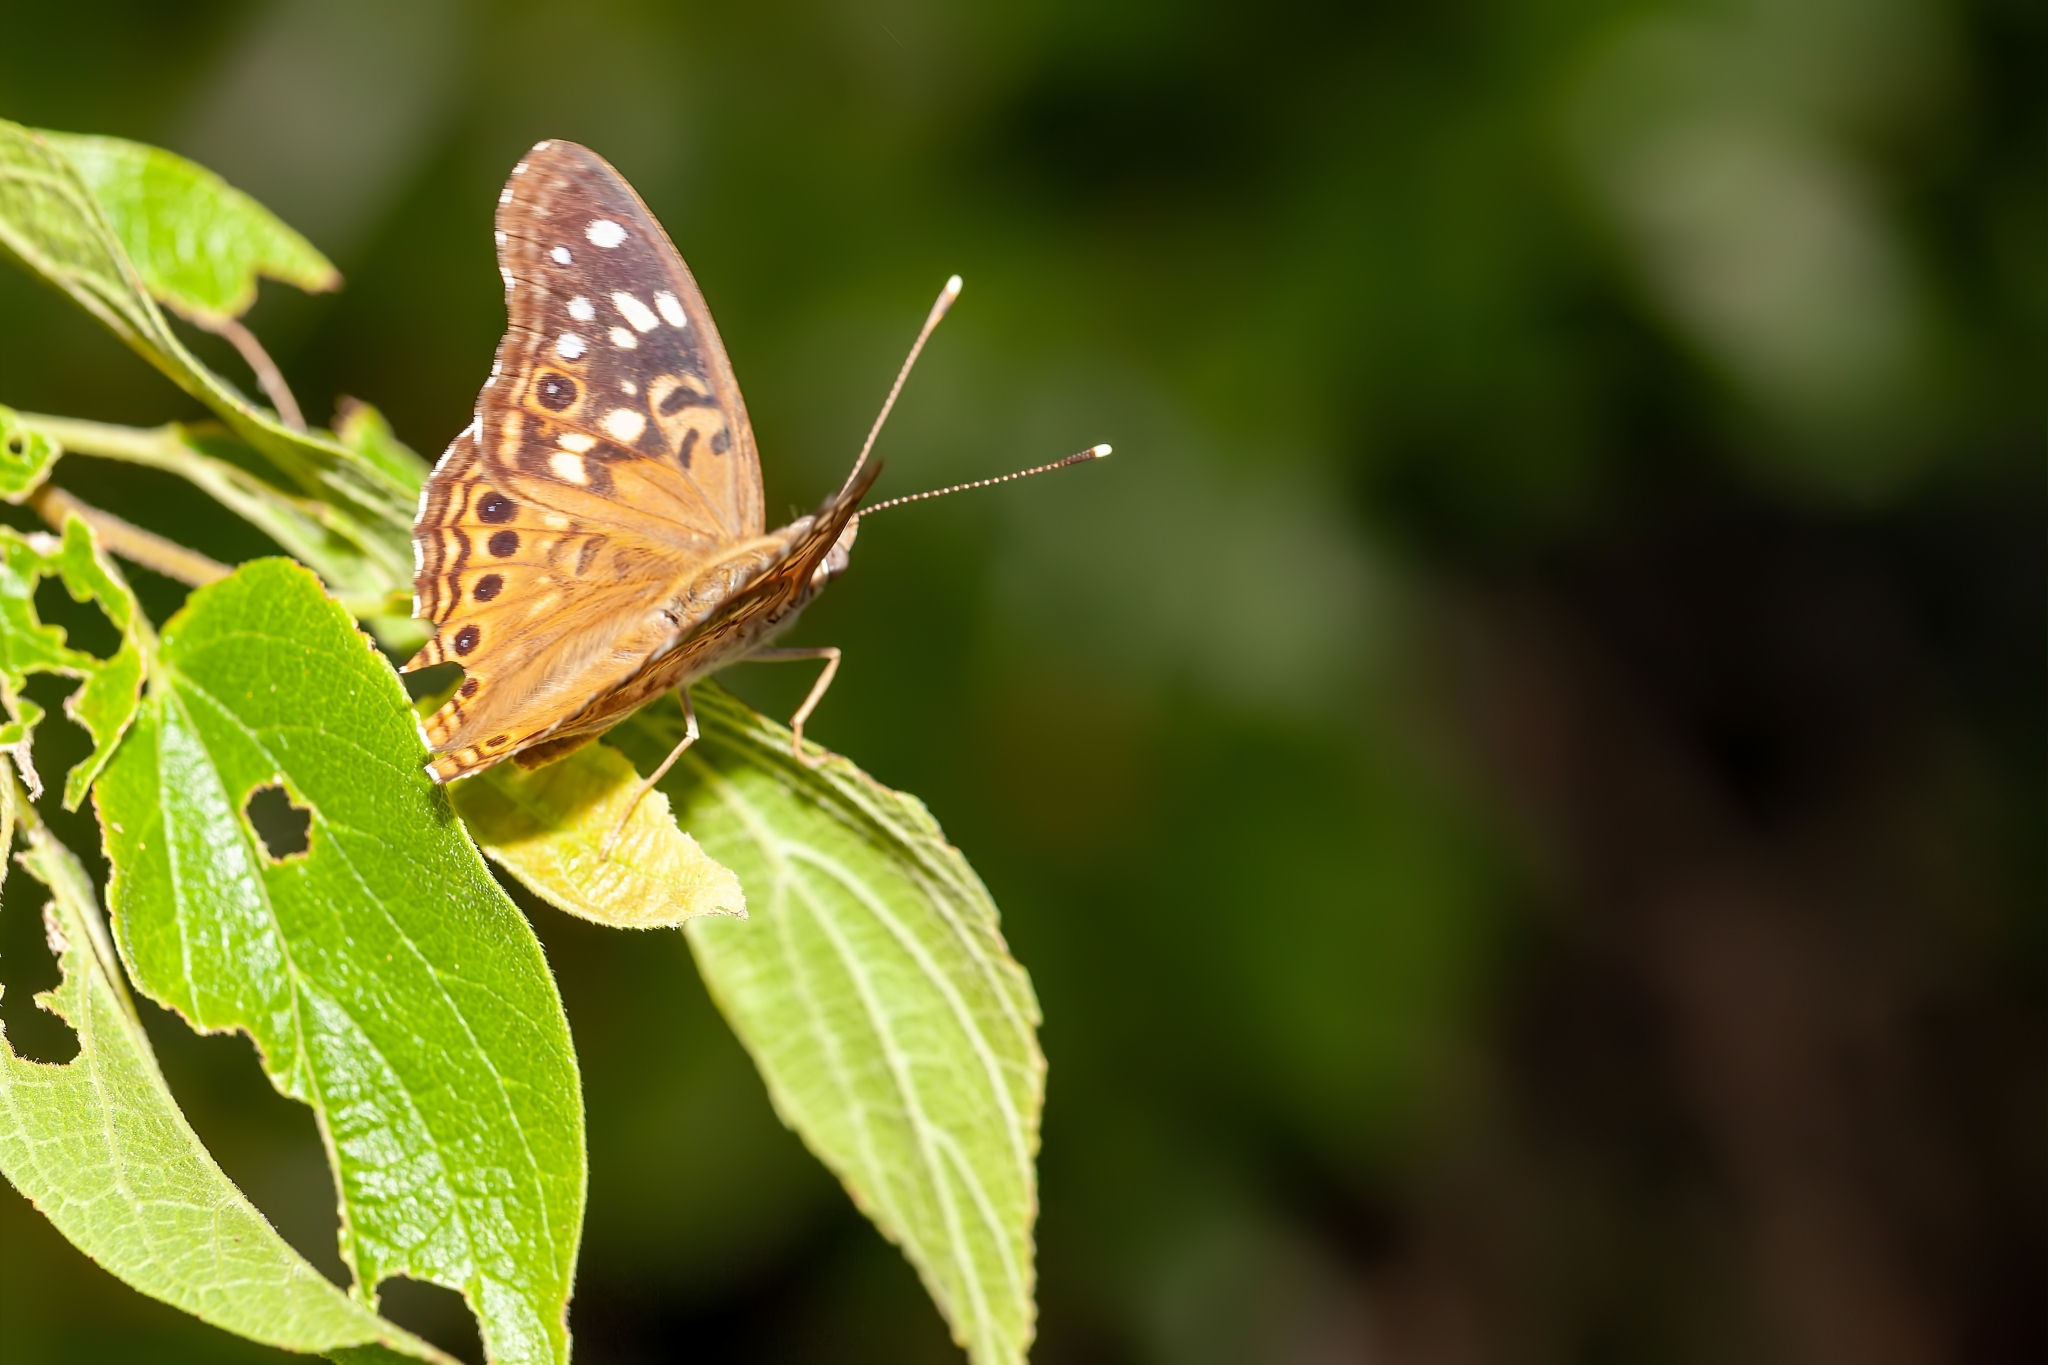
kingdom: Animalia
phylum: Arthropoda
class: Insecta
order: Lepidoptera
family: Nymphalidae
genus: Asterocampa
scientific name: Asterocampa celtis
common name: Hackberry emperor
